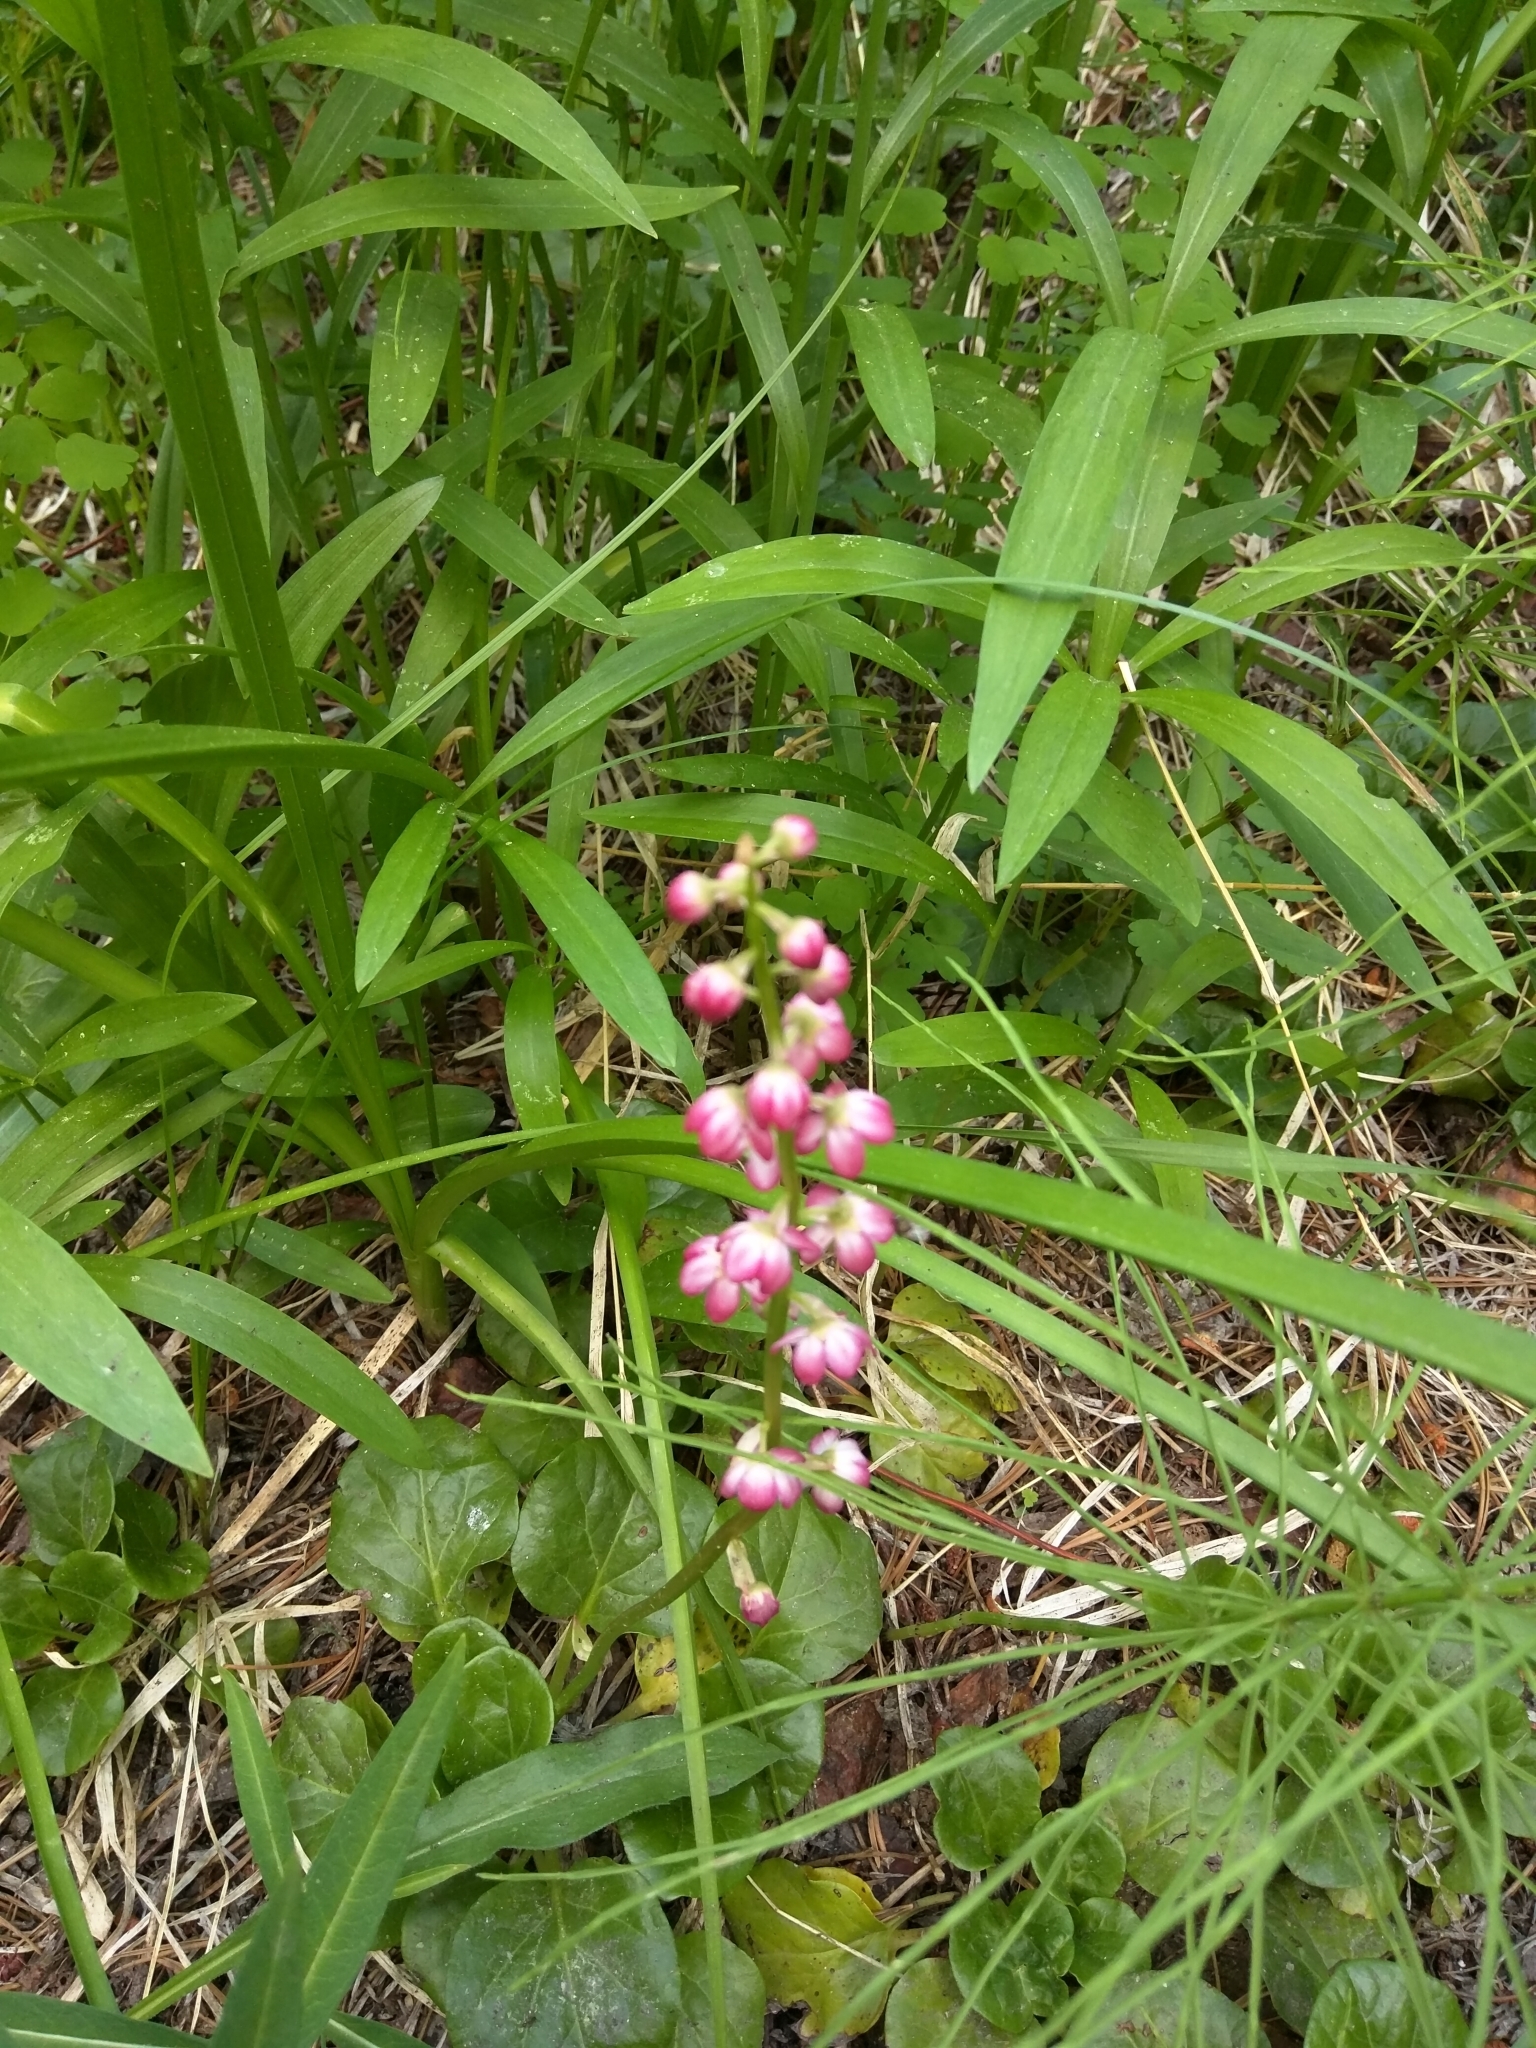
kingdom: Plantae
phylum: Tracheophyta
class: Magnoliopsida
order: Ericales
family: Ericaceae
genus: Pyrola
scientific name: Pyrola asarifolia
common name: Bog wintergreen
